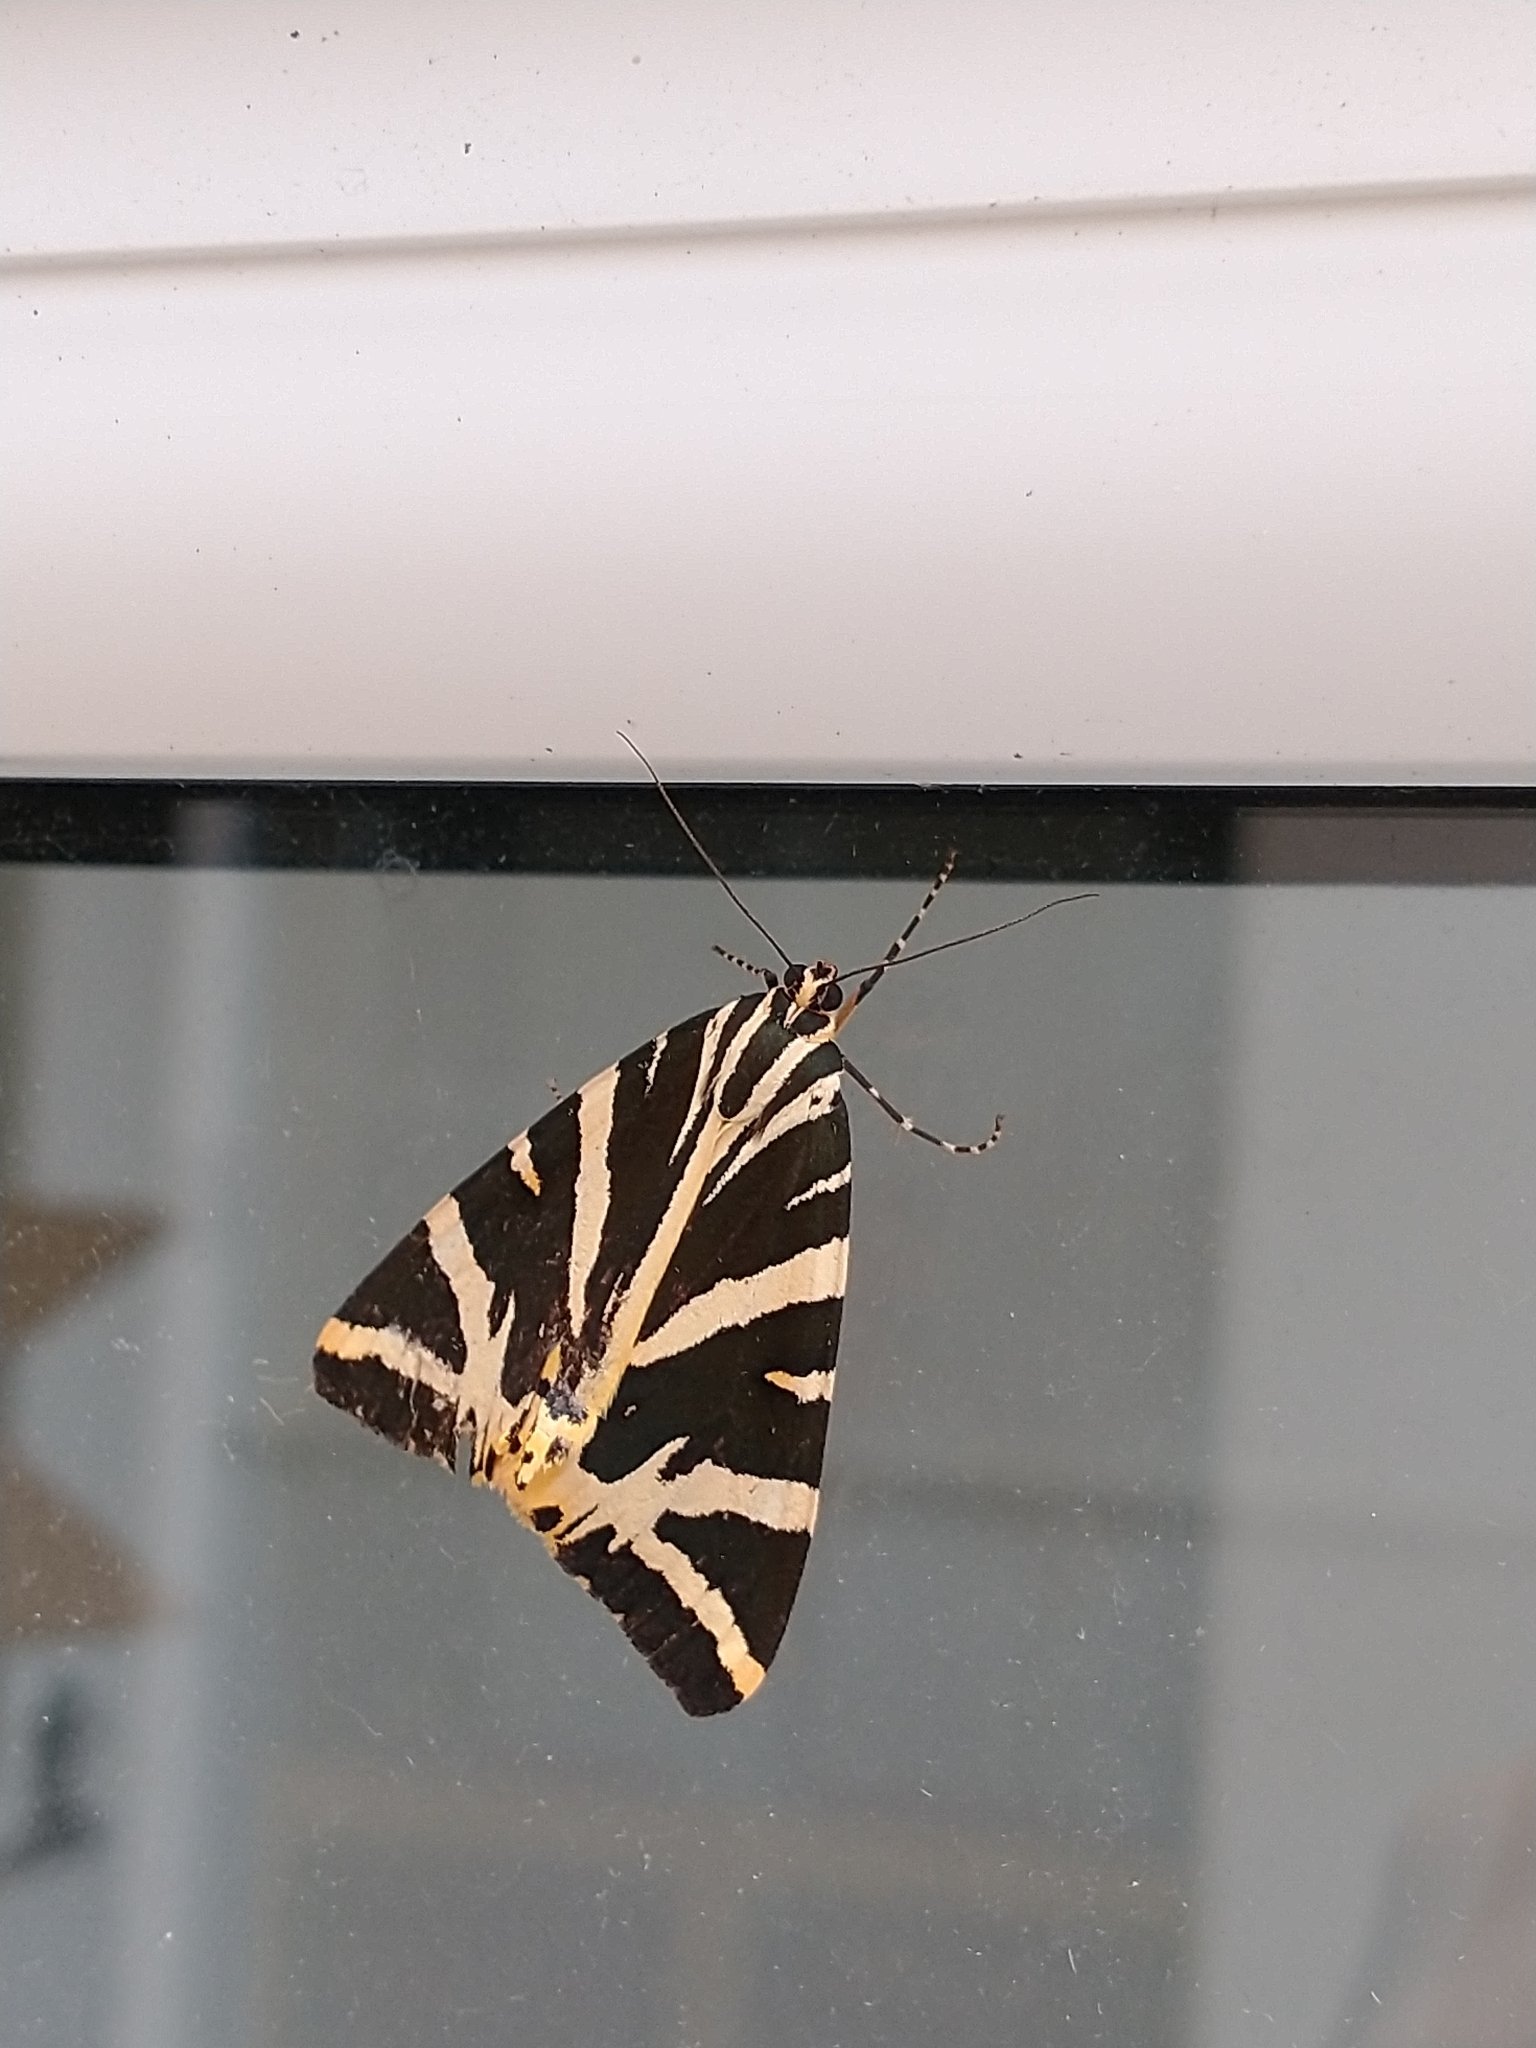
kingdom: Animalia
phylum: Arthropoda
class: Insecta
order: Lepidoptera
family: Erebidae
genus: Euplagia
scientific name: Euplagia quadripunctaria
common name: Jersey tiger
